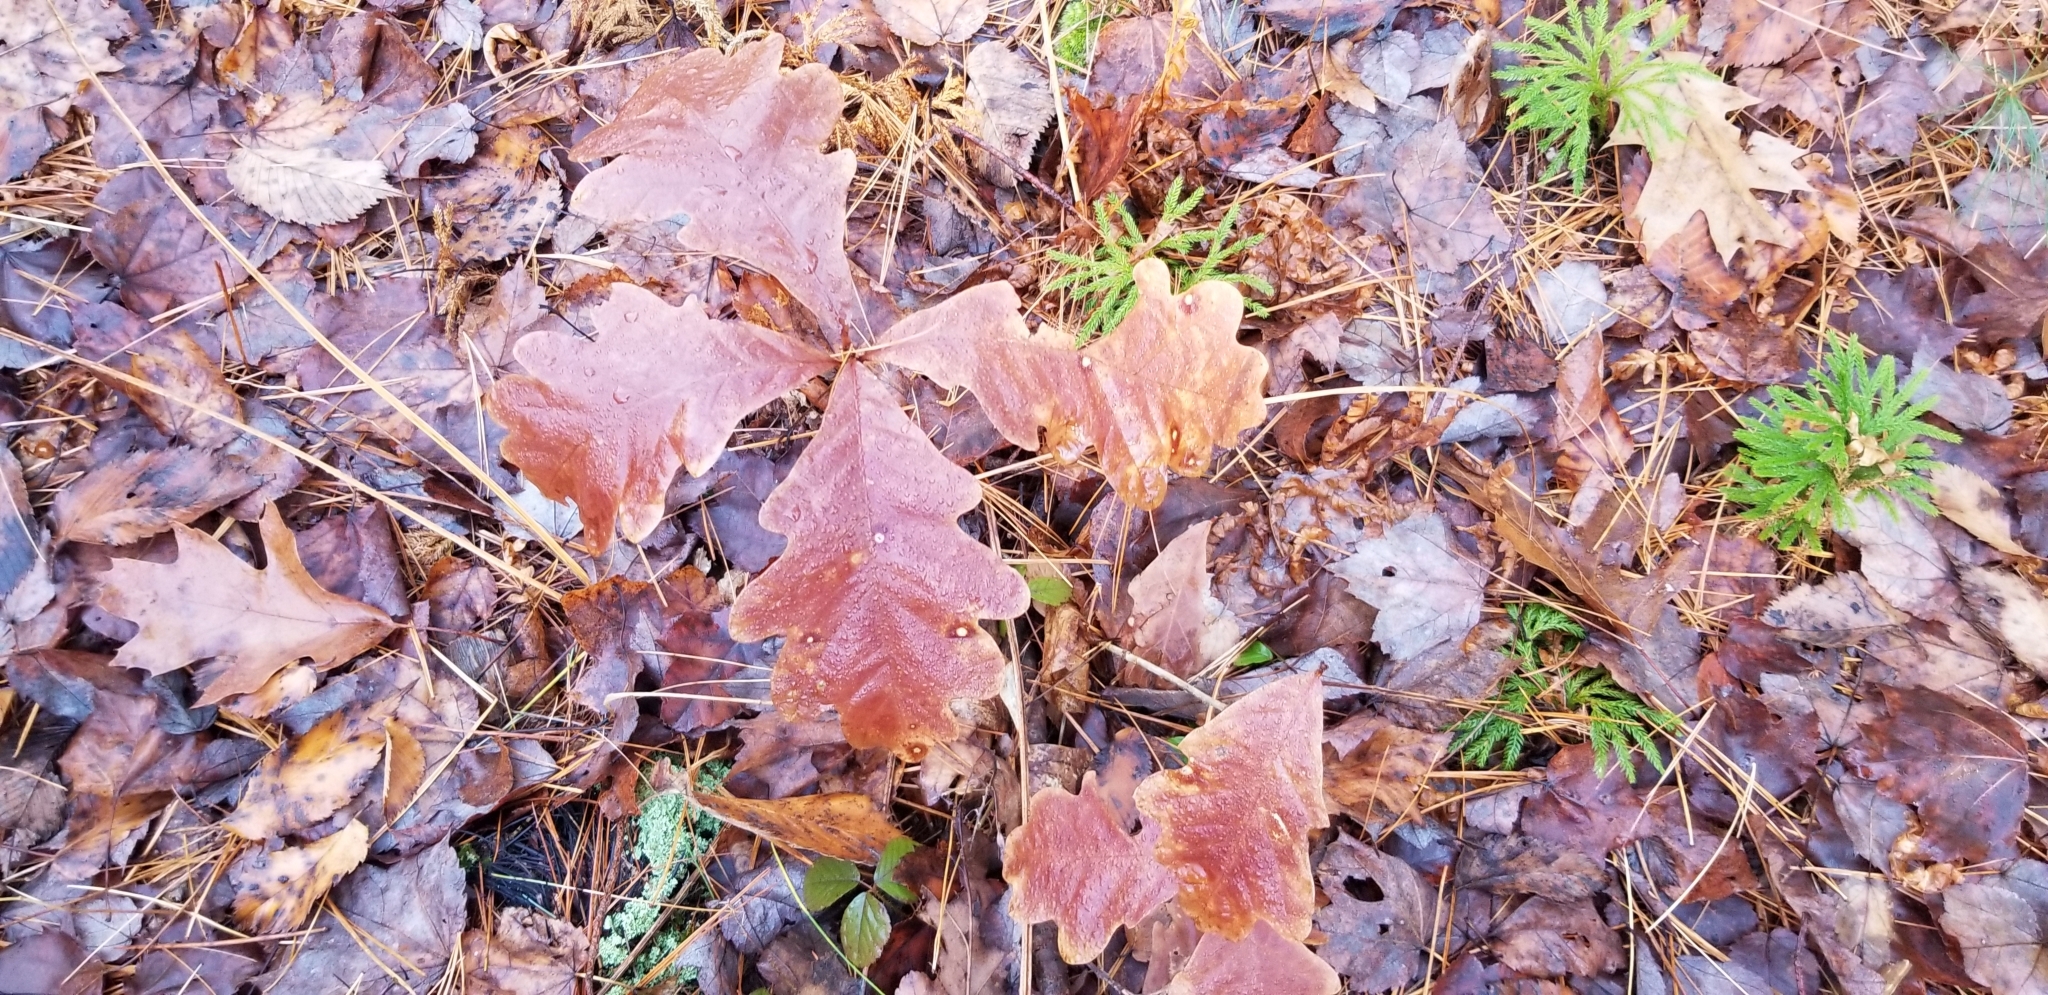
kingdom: Plantae
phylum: Tracheophyta
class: Magnoliopsida
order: Fagales
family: Fagaceae
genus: Quercus
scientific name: Quercus alba
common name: White oak
